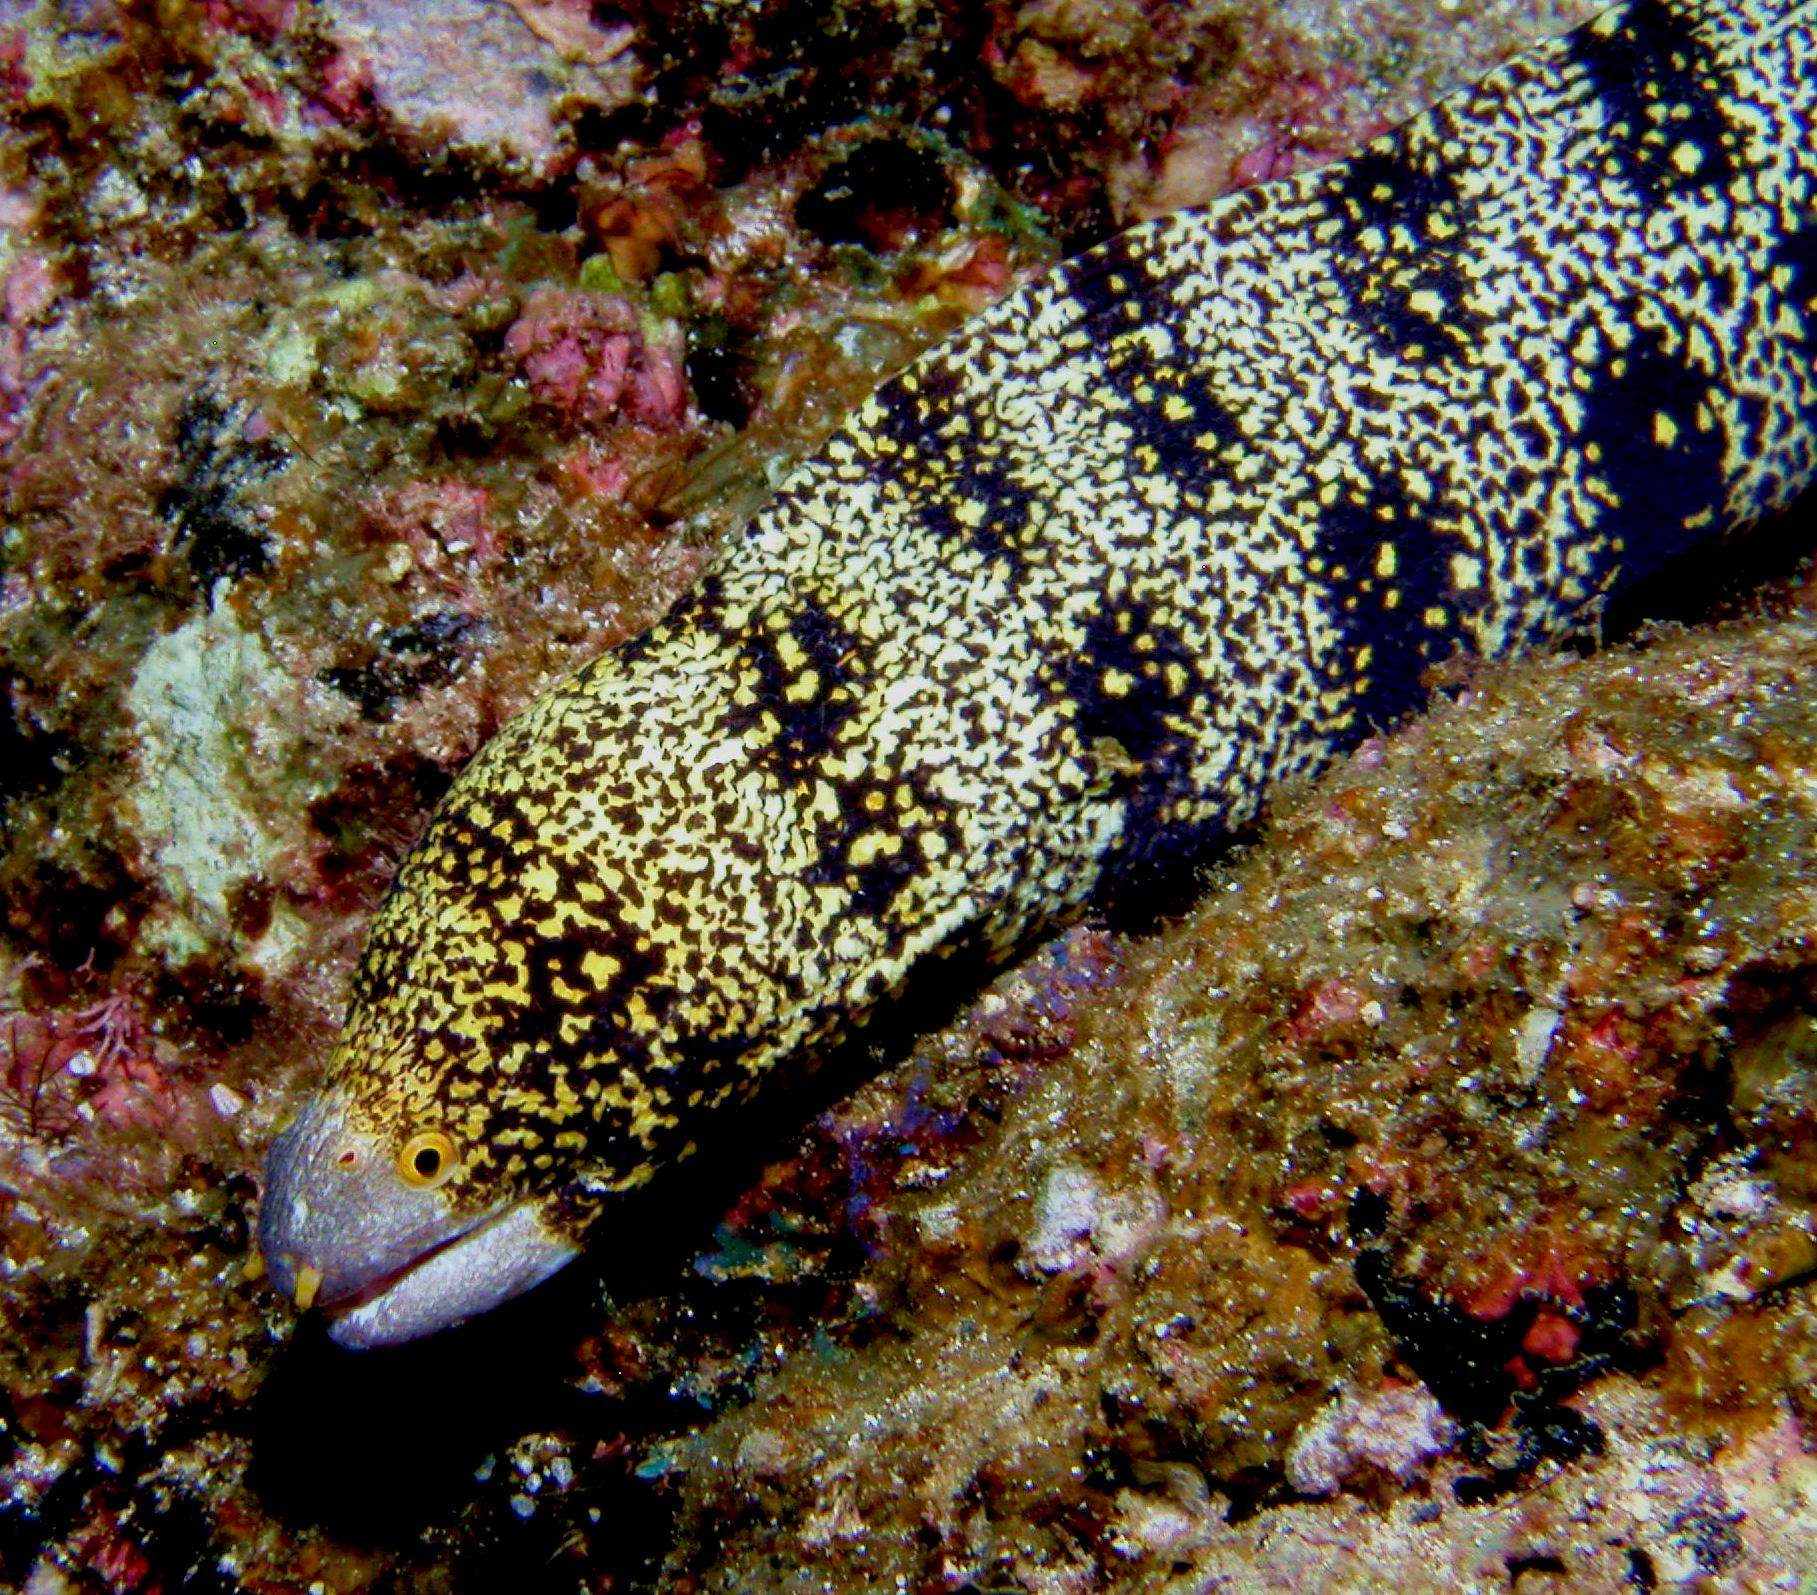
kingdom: Animalia
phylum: Chordata
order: Anguilliformes
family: Muraenidae
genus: Echidna
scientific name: Echidna nebulosa
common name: Snowflake moray
